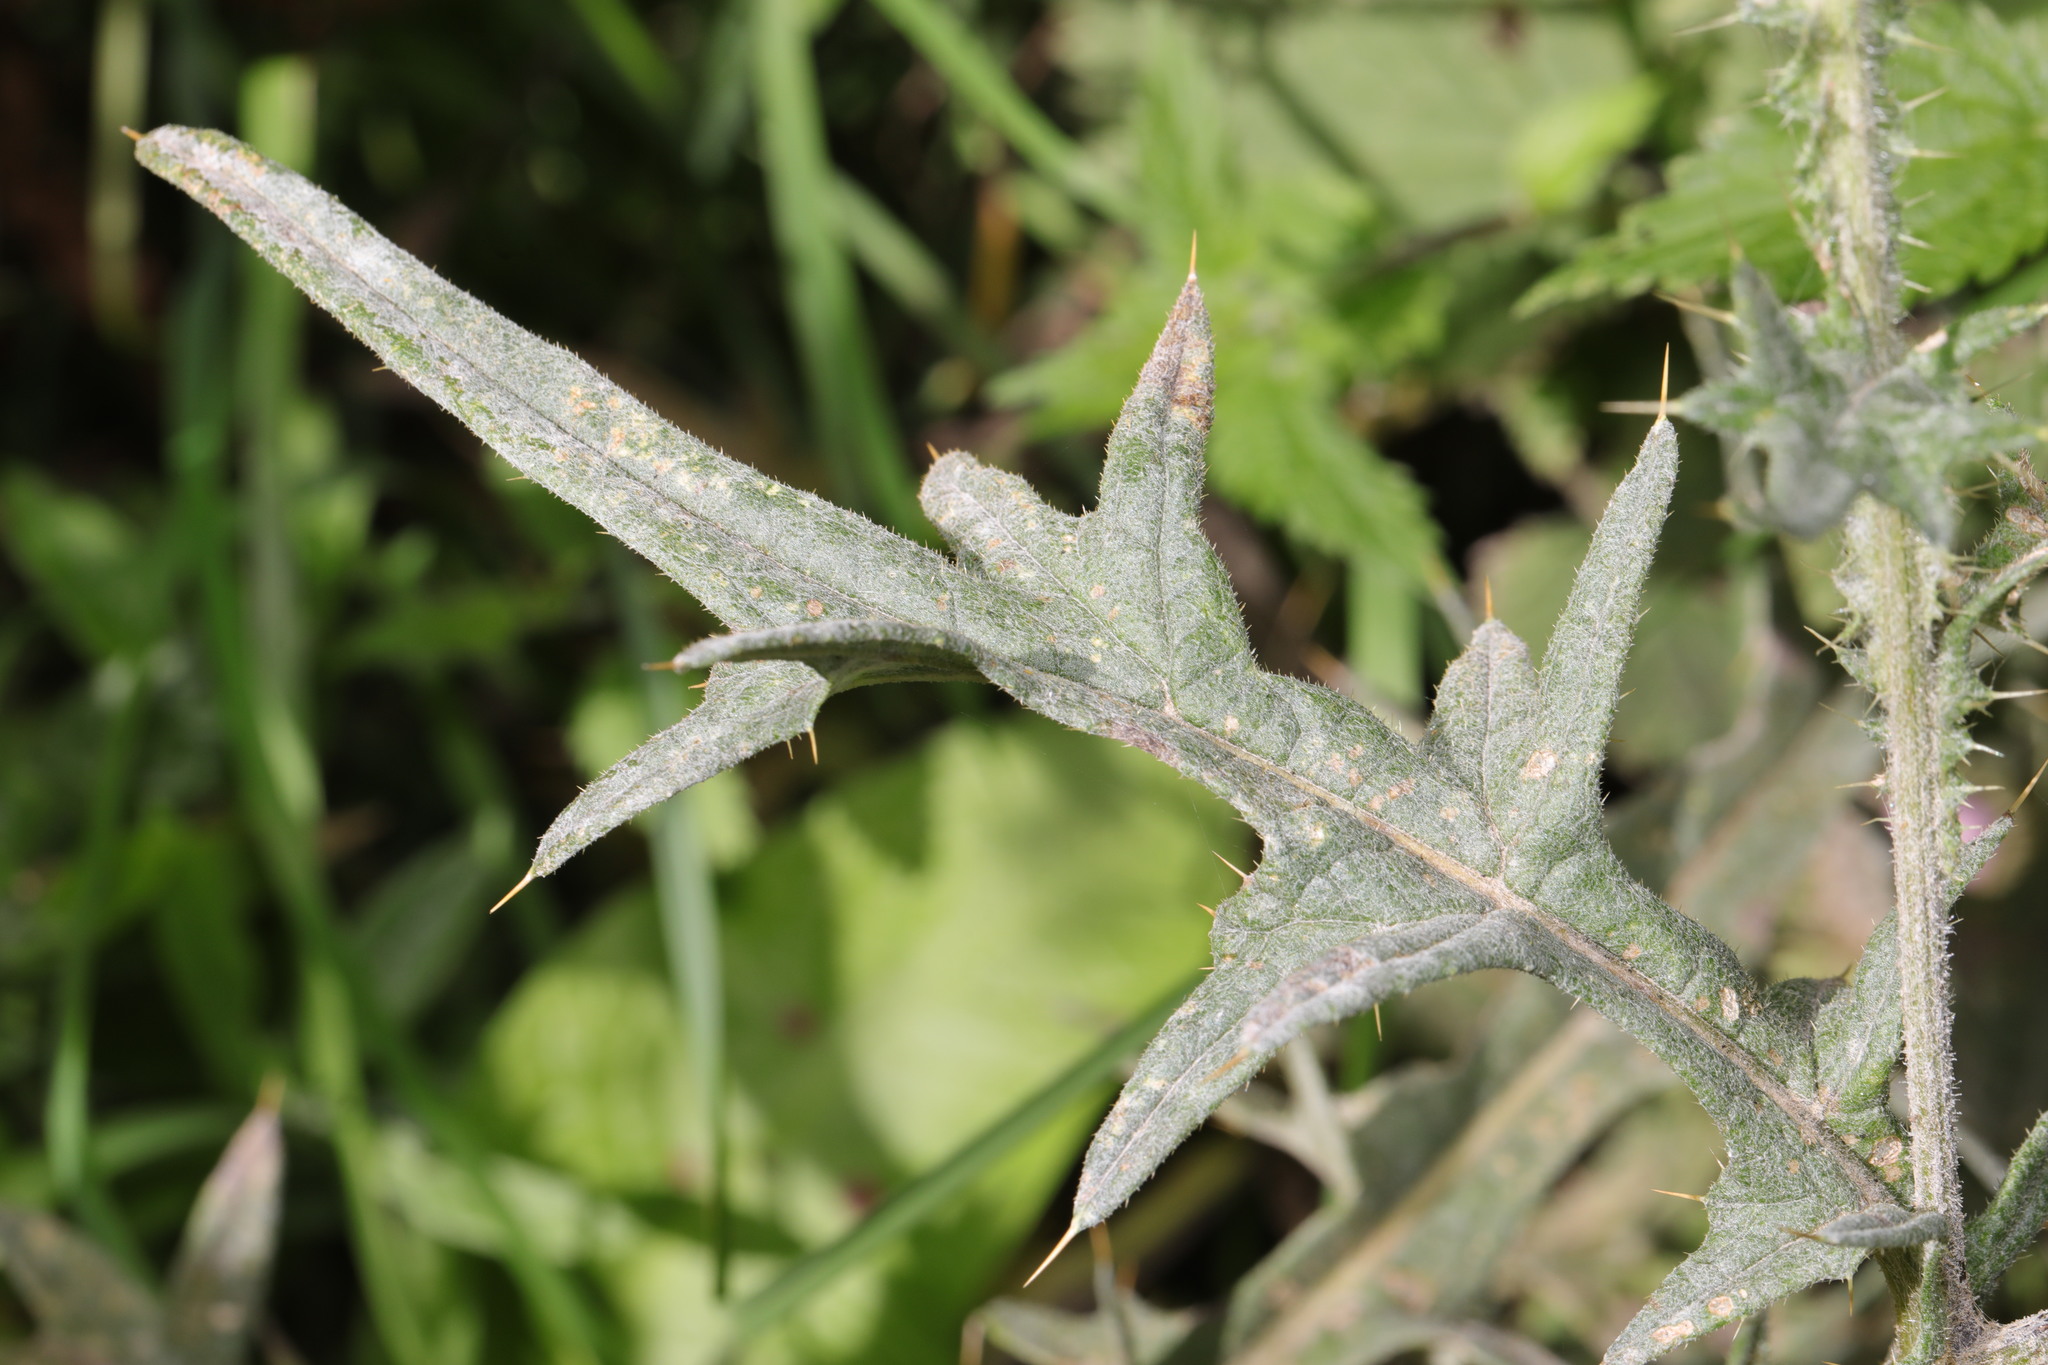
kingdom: Plantae
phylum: Tracheophyta
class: Magnoliopsida
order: Asterales
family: Asteraceae
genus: Cirsium
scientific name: Cirsium vulgare
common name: Bull thistle
